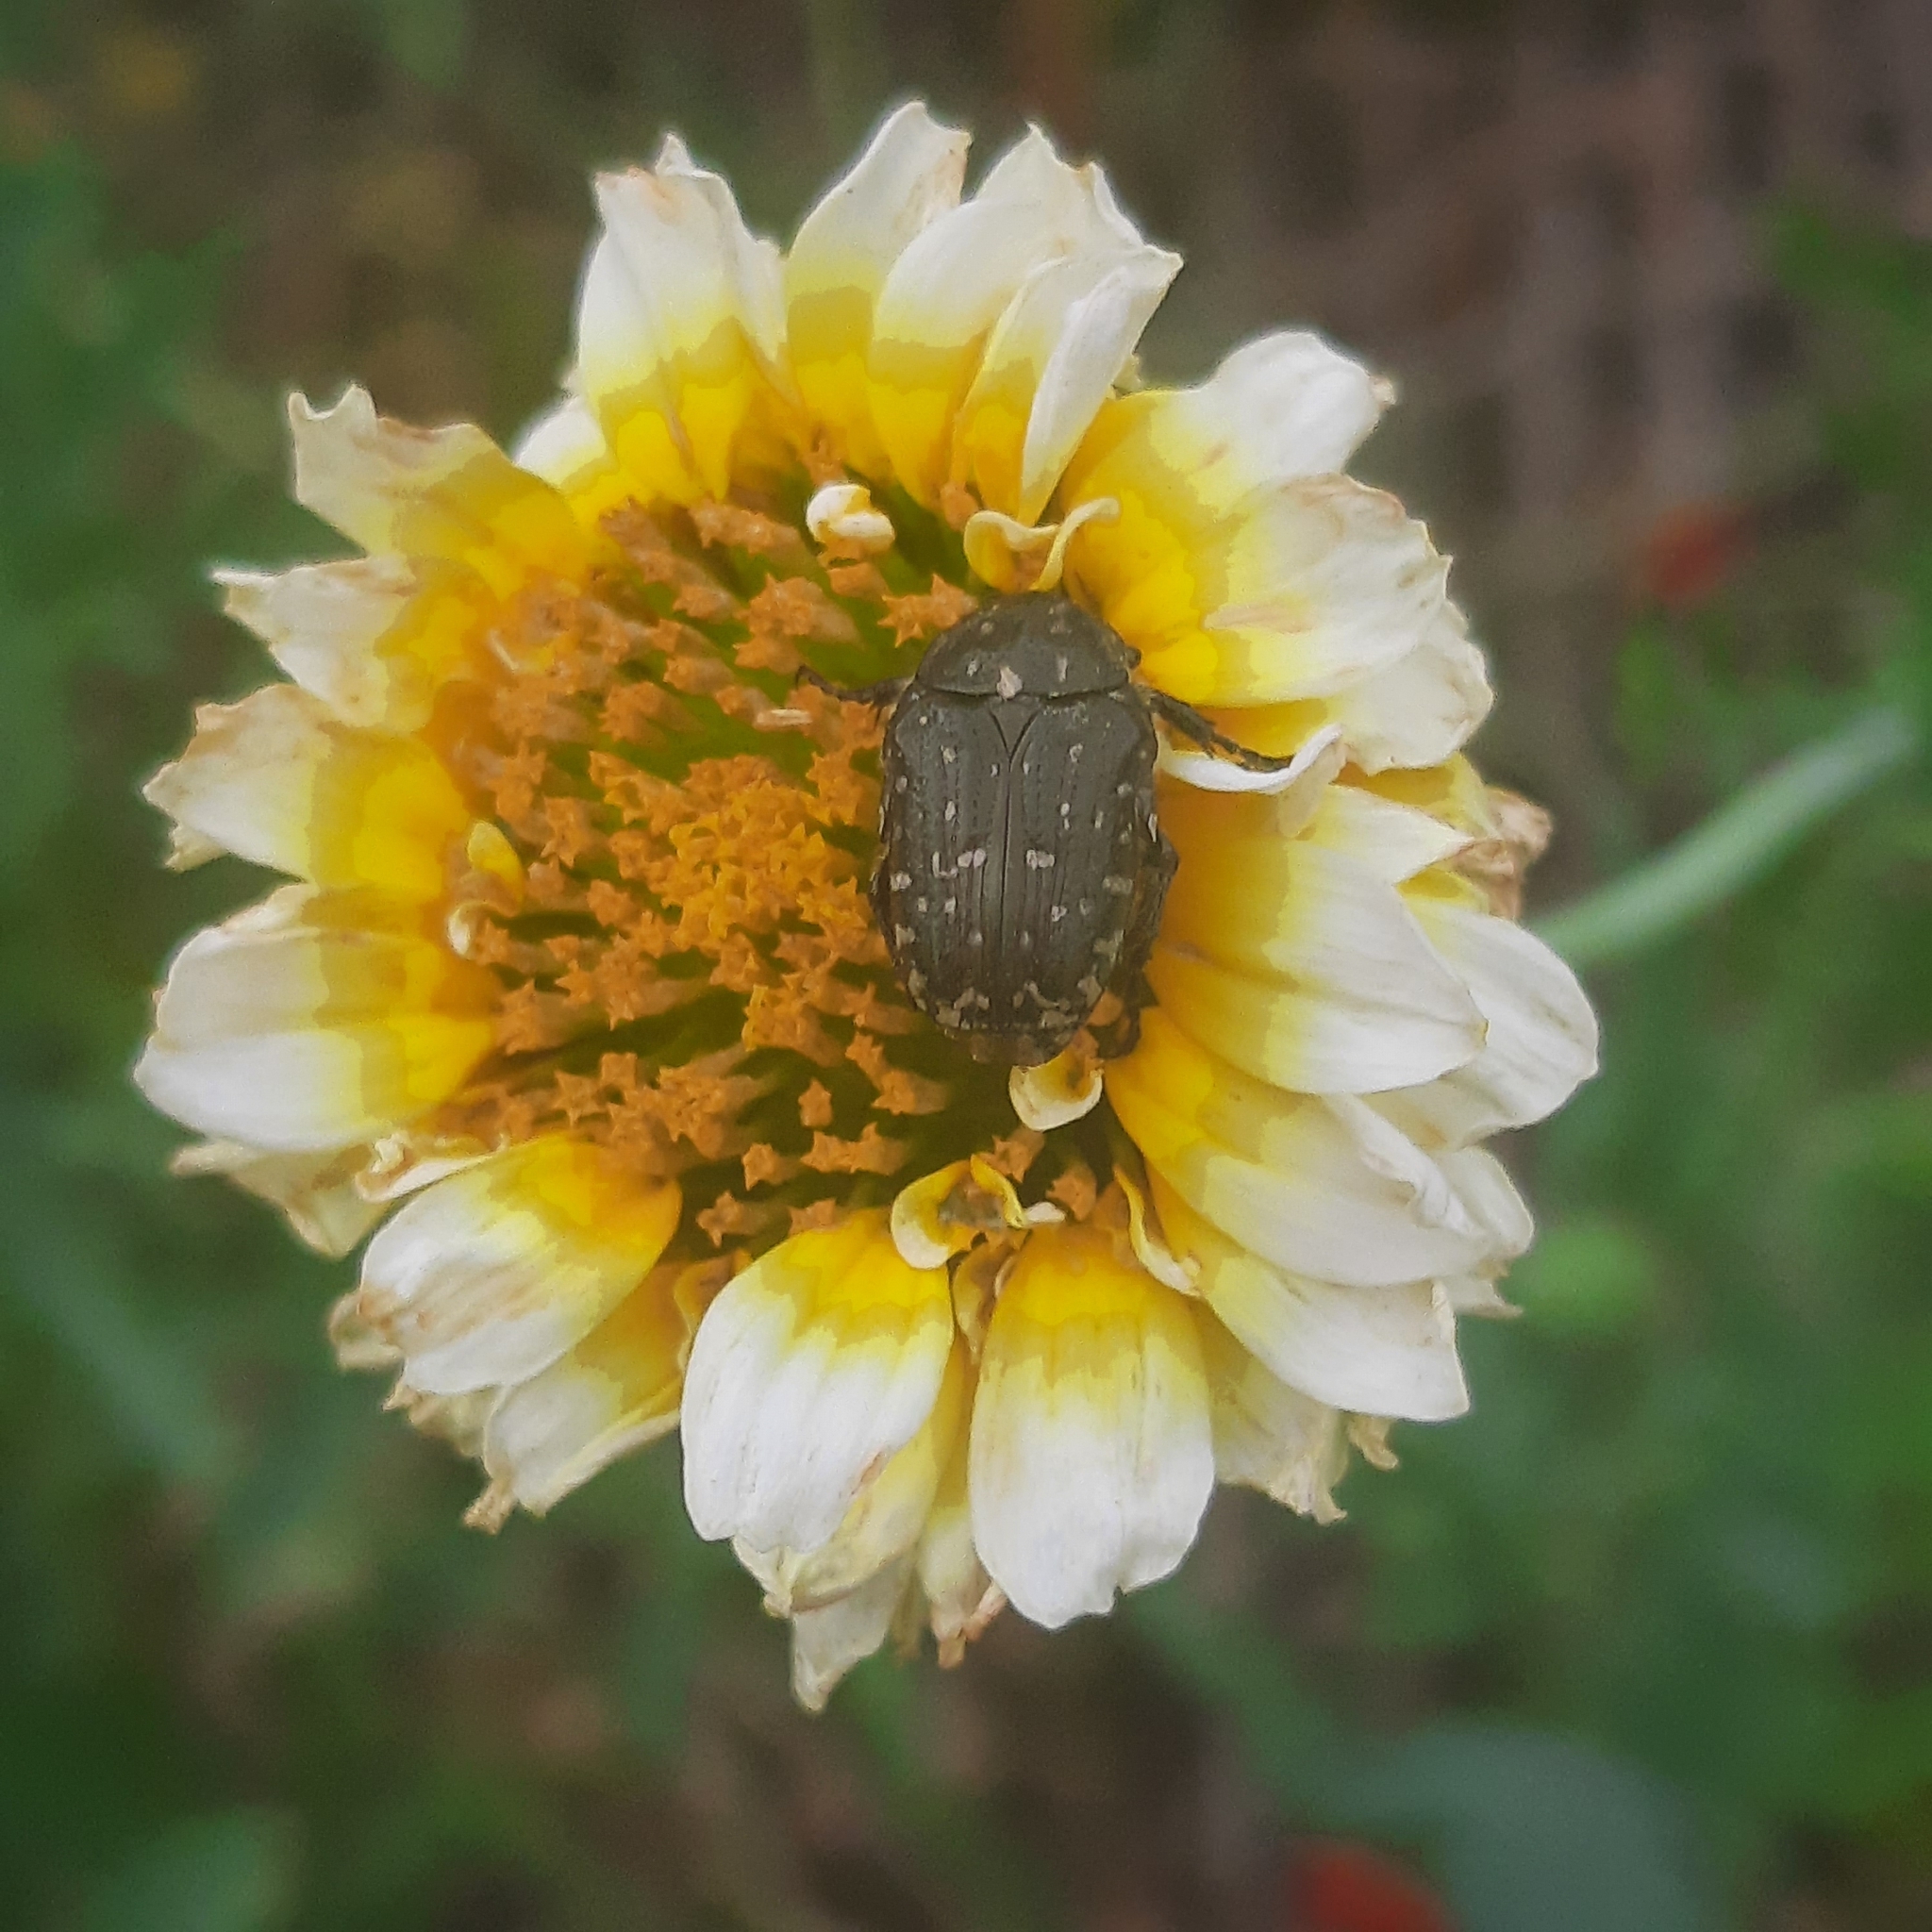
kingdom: Animalia
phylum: Arthropoda
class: Insecta
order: Coleoptera
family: Scarabaeidae
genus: Oxythyrea
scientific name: Oxythyrea funesta
